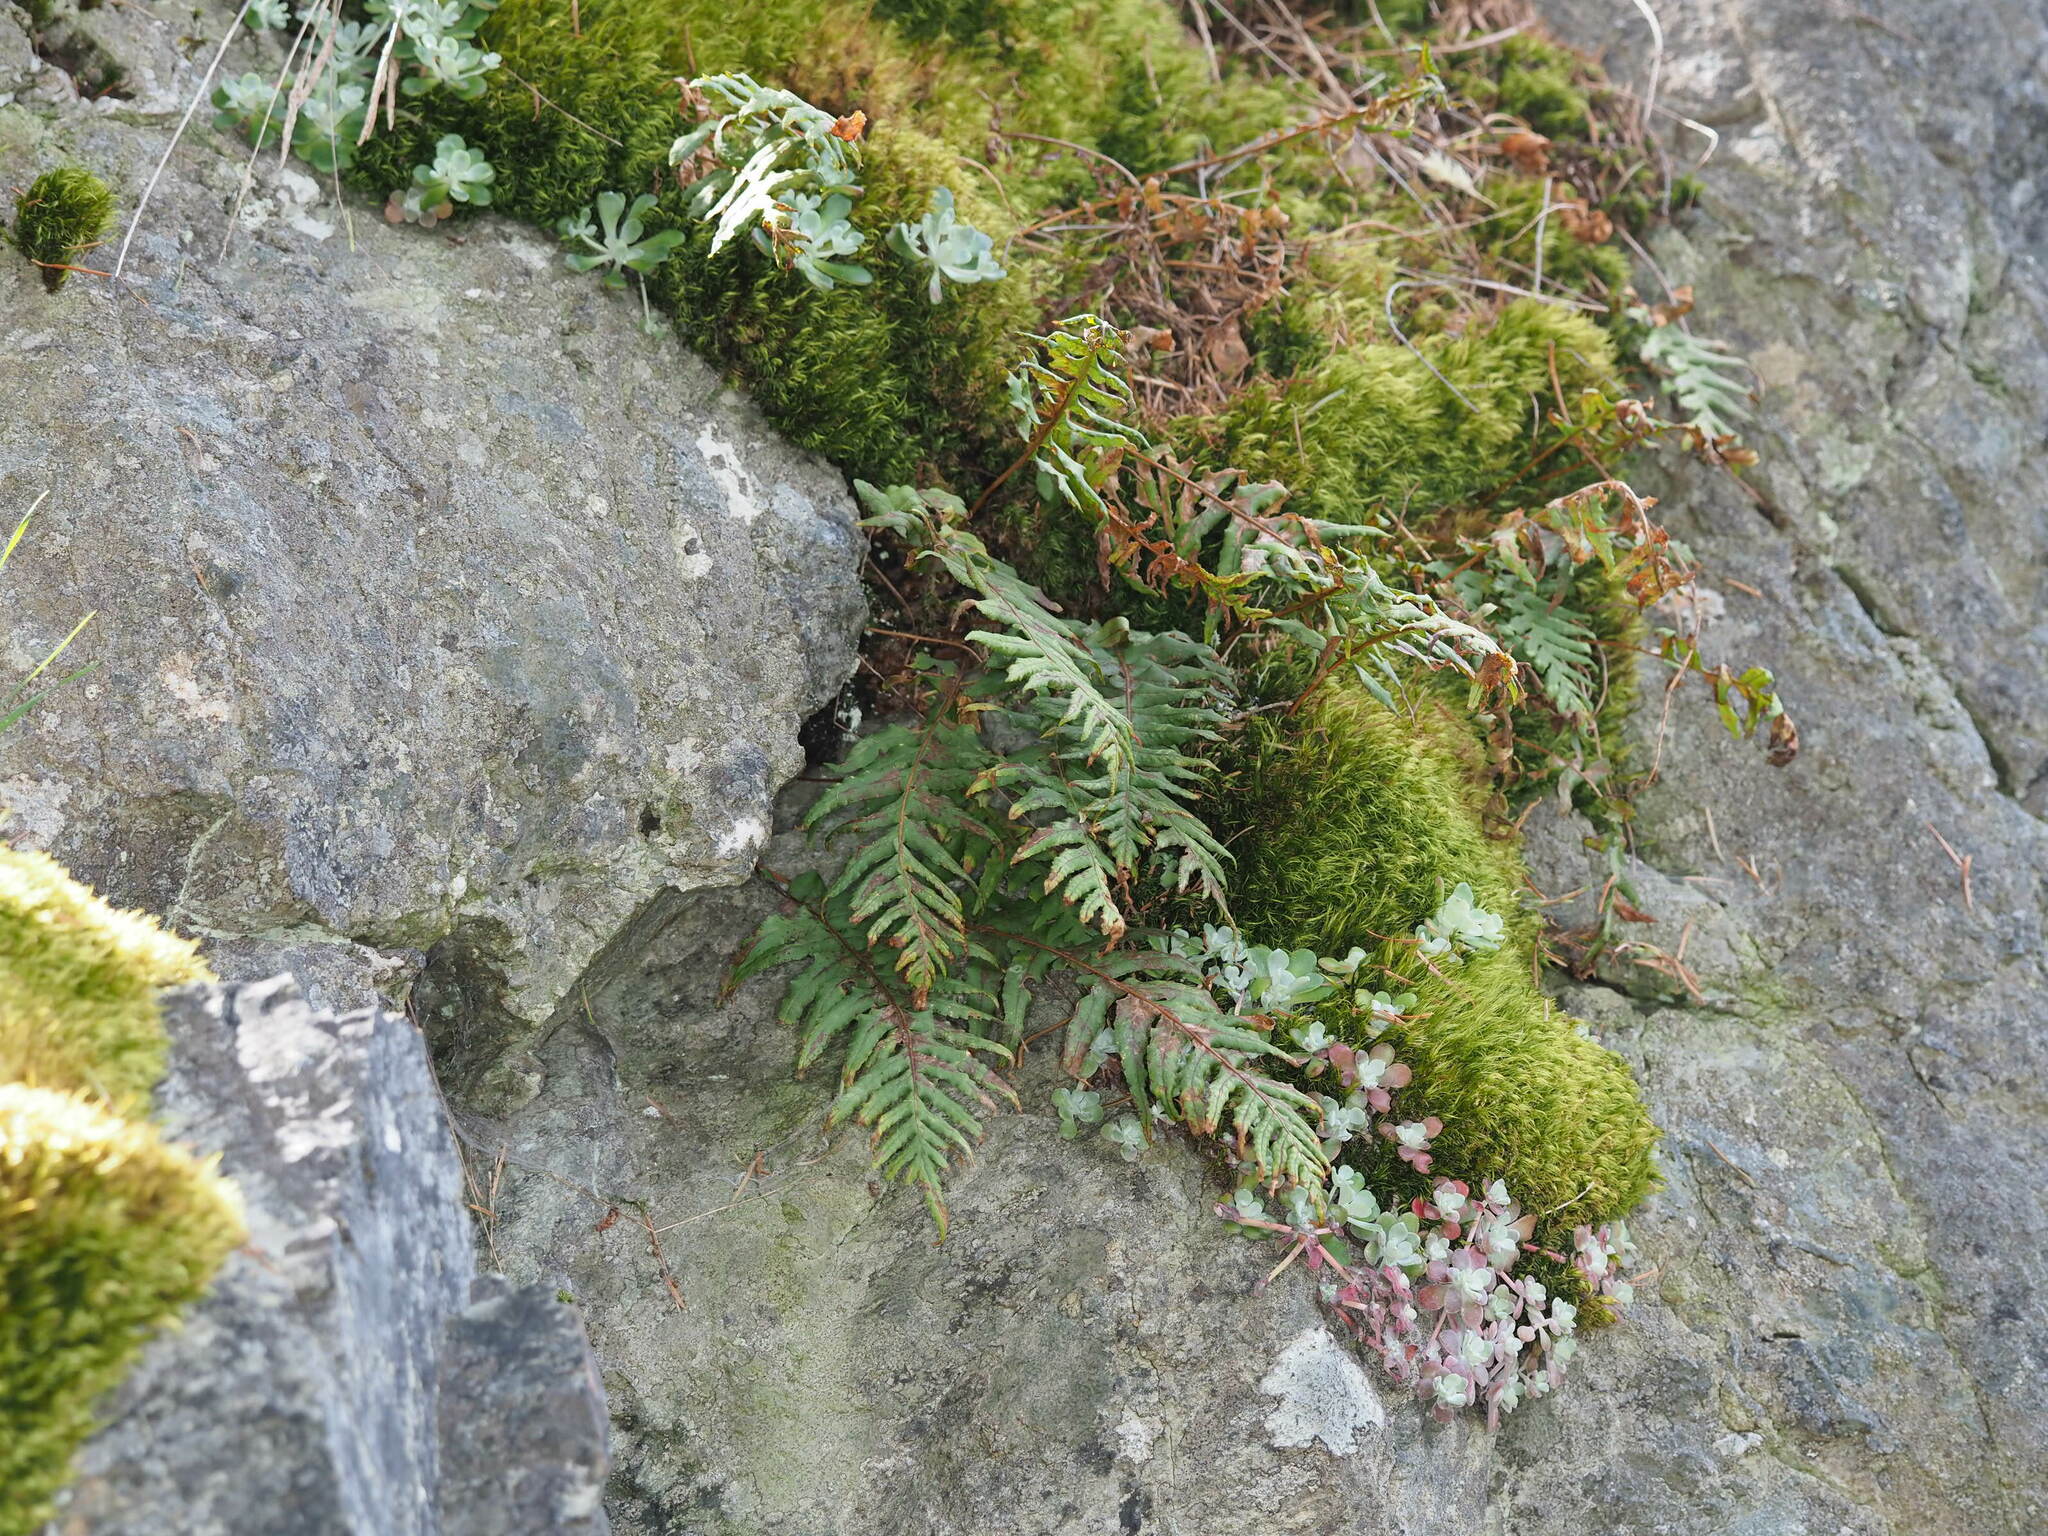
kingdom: Plantae
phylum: Tracheophyta
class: Polypodiopsida
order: Polypodiales
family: Polypodiaceae
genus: Polypodium
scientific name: Polypodium glycyrrhiza
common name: Licorice fern
